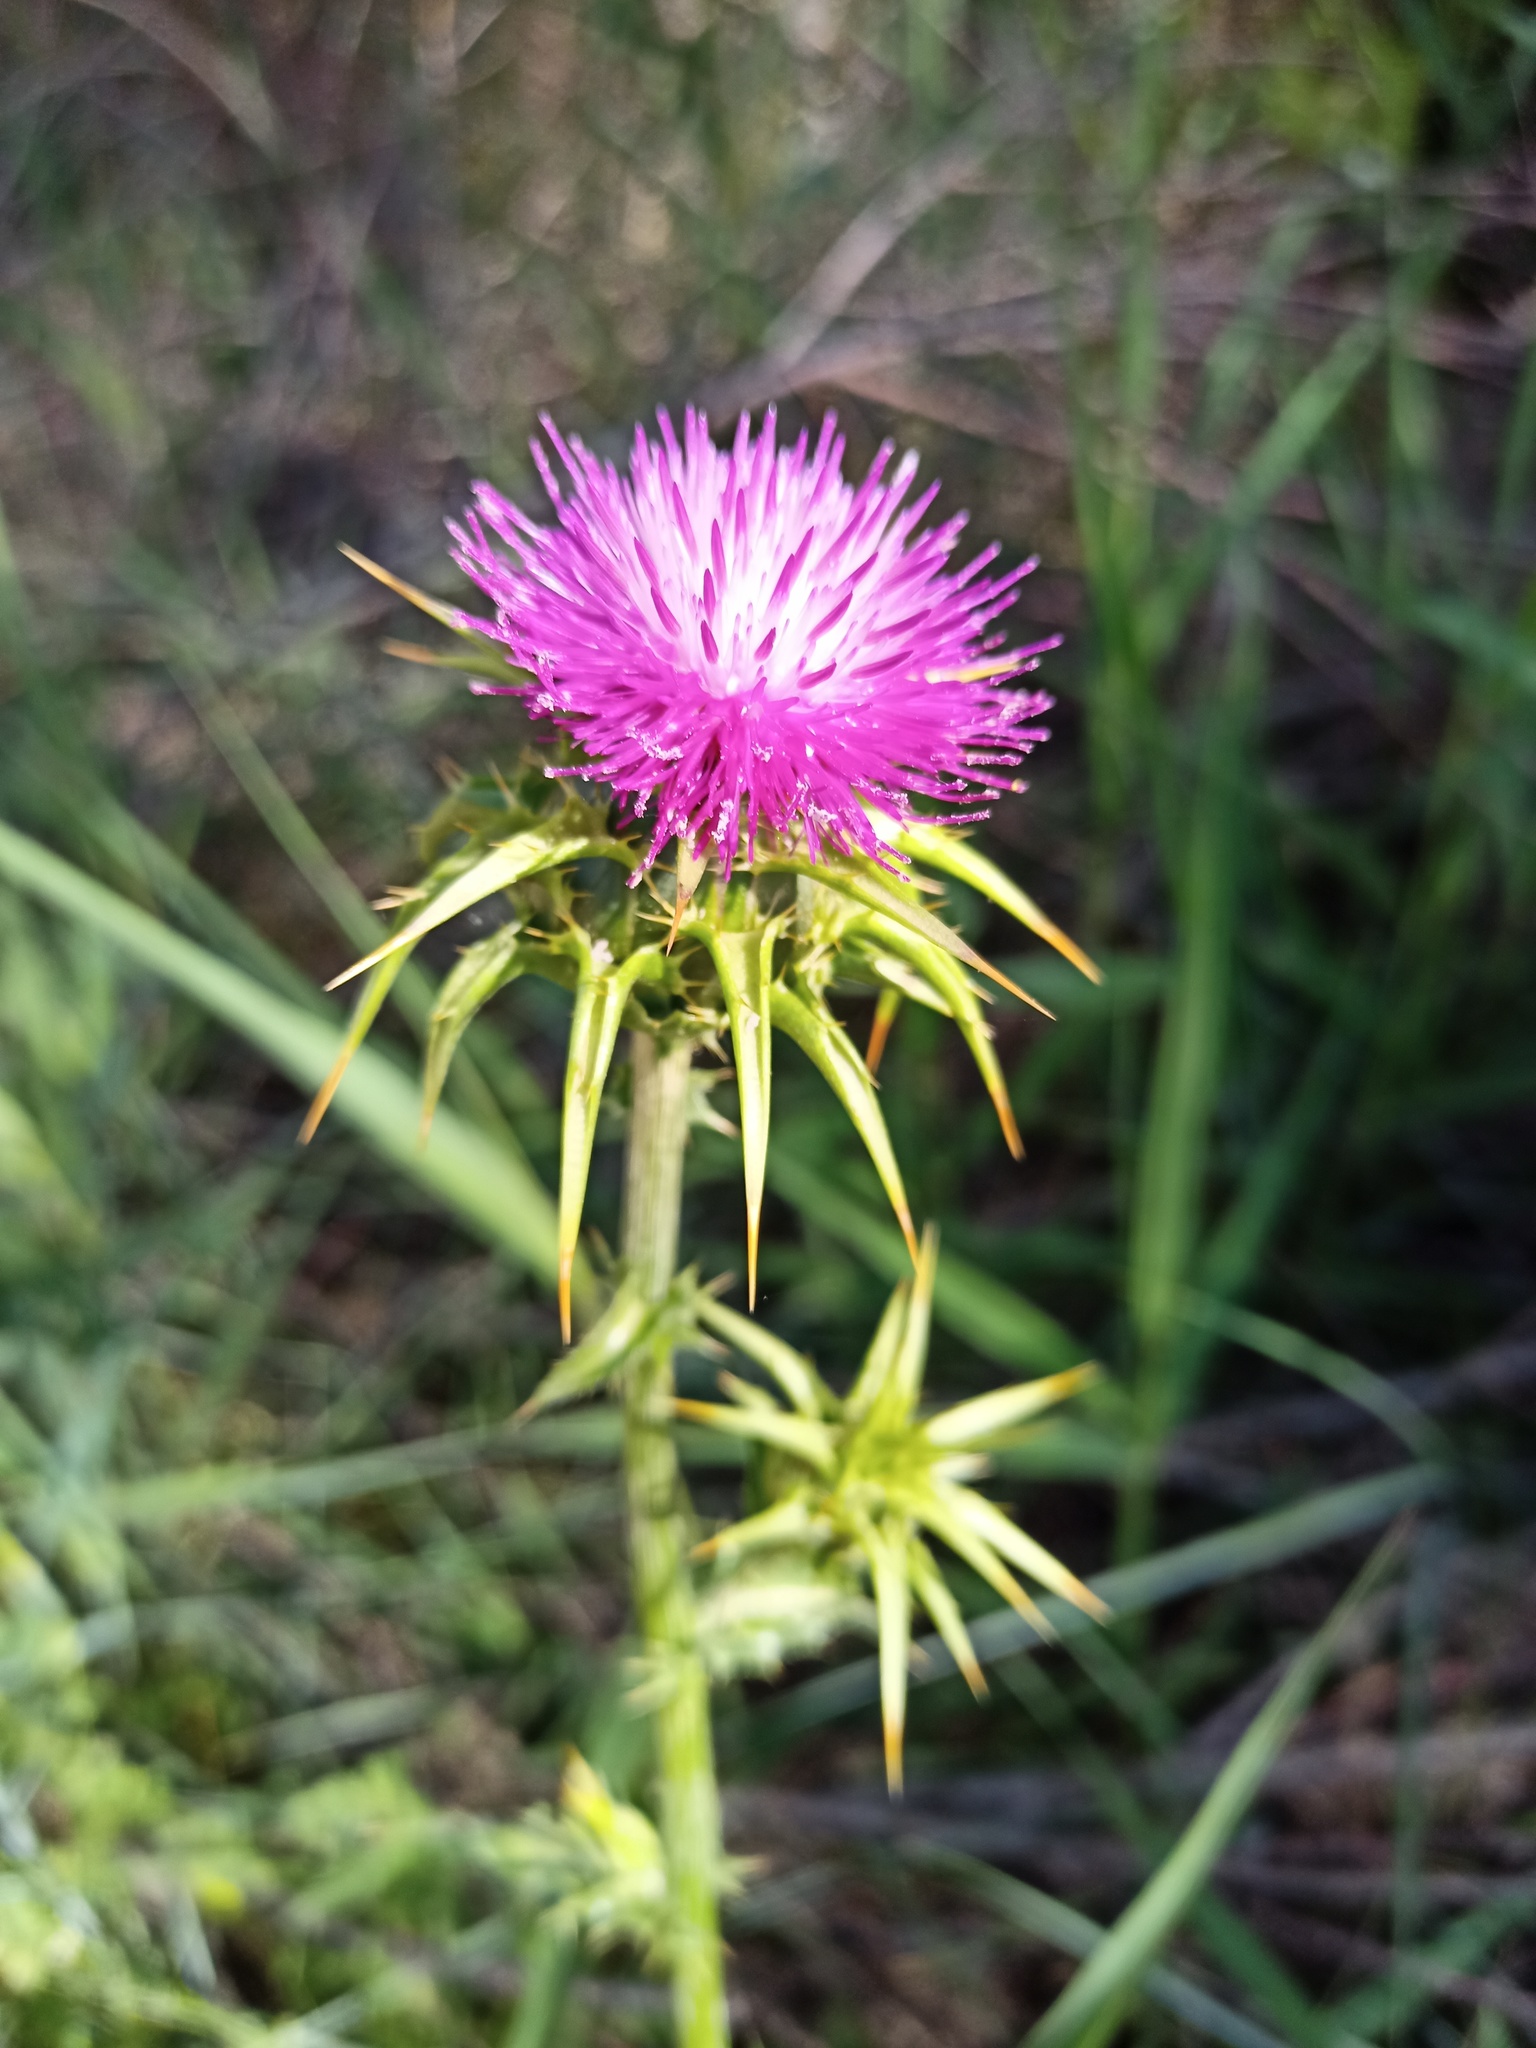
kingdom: Plantae
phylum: Tracheophyta
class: Magnoliopsida
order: Asterales
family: Asteraceae
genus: Silybum
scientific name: Silybum marianum
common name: Milk thistle
